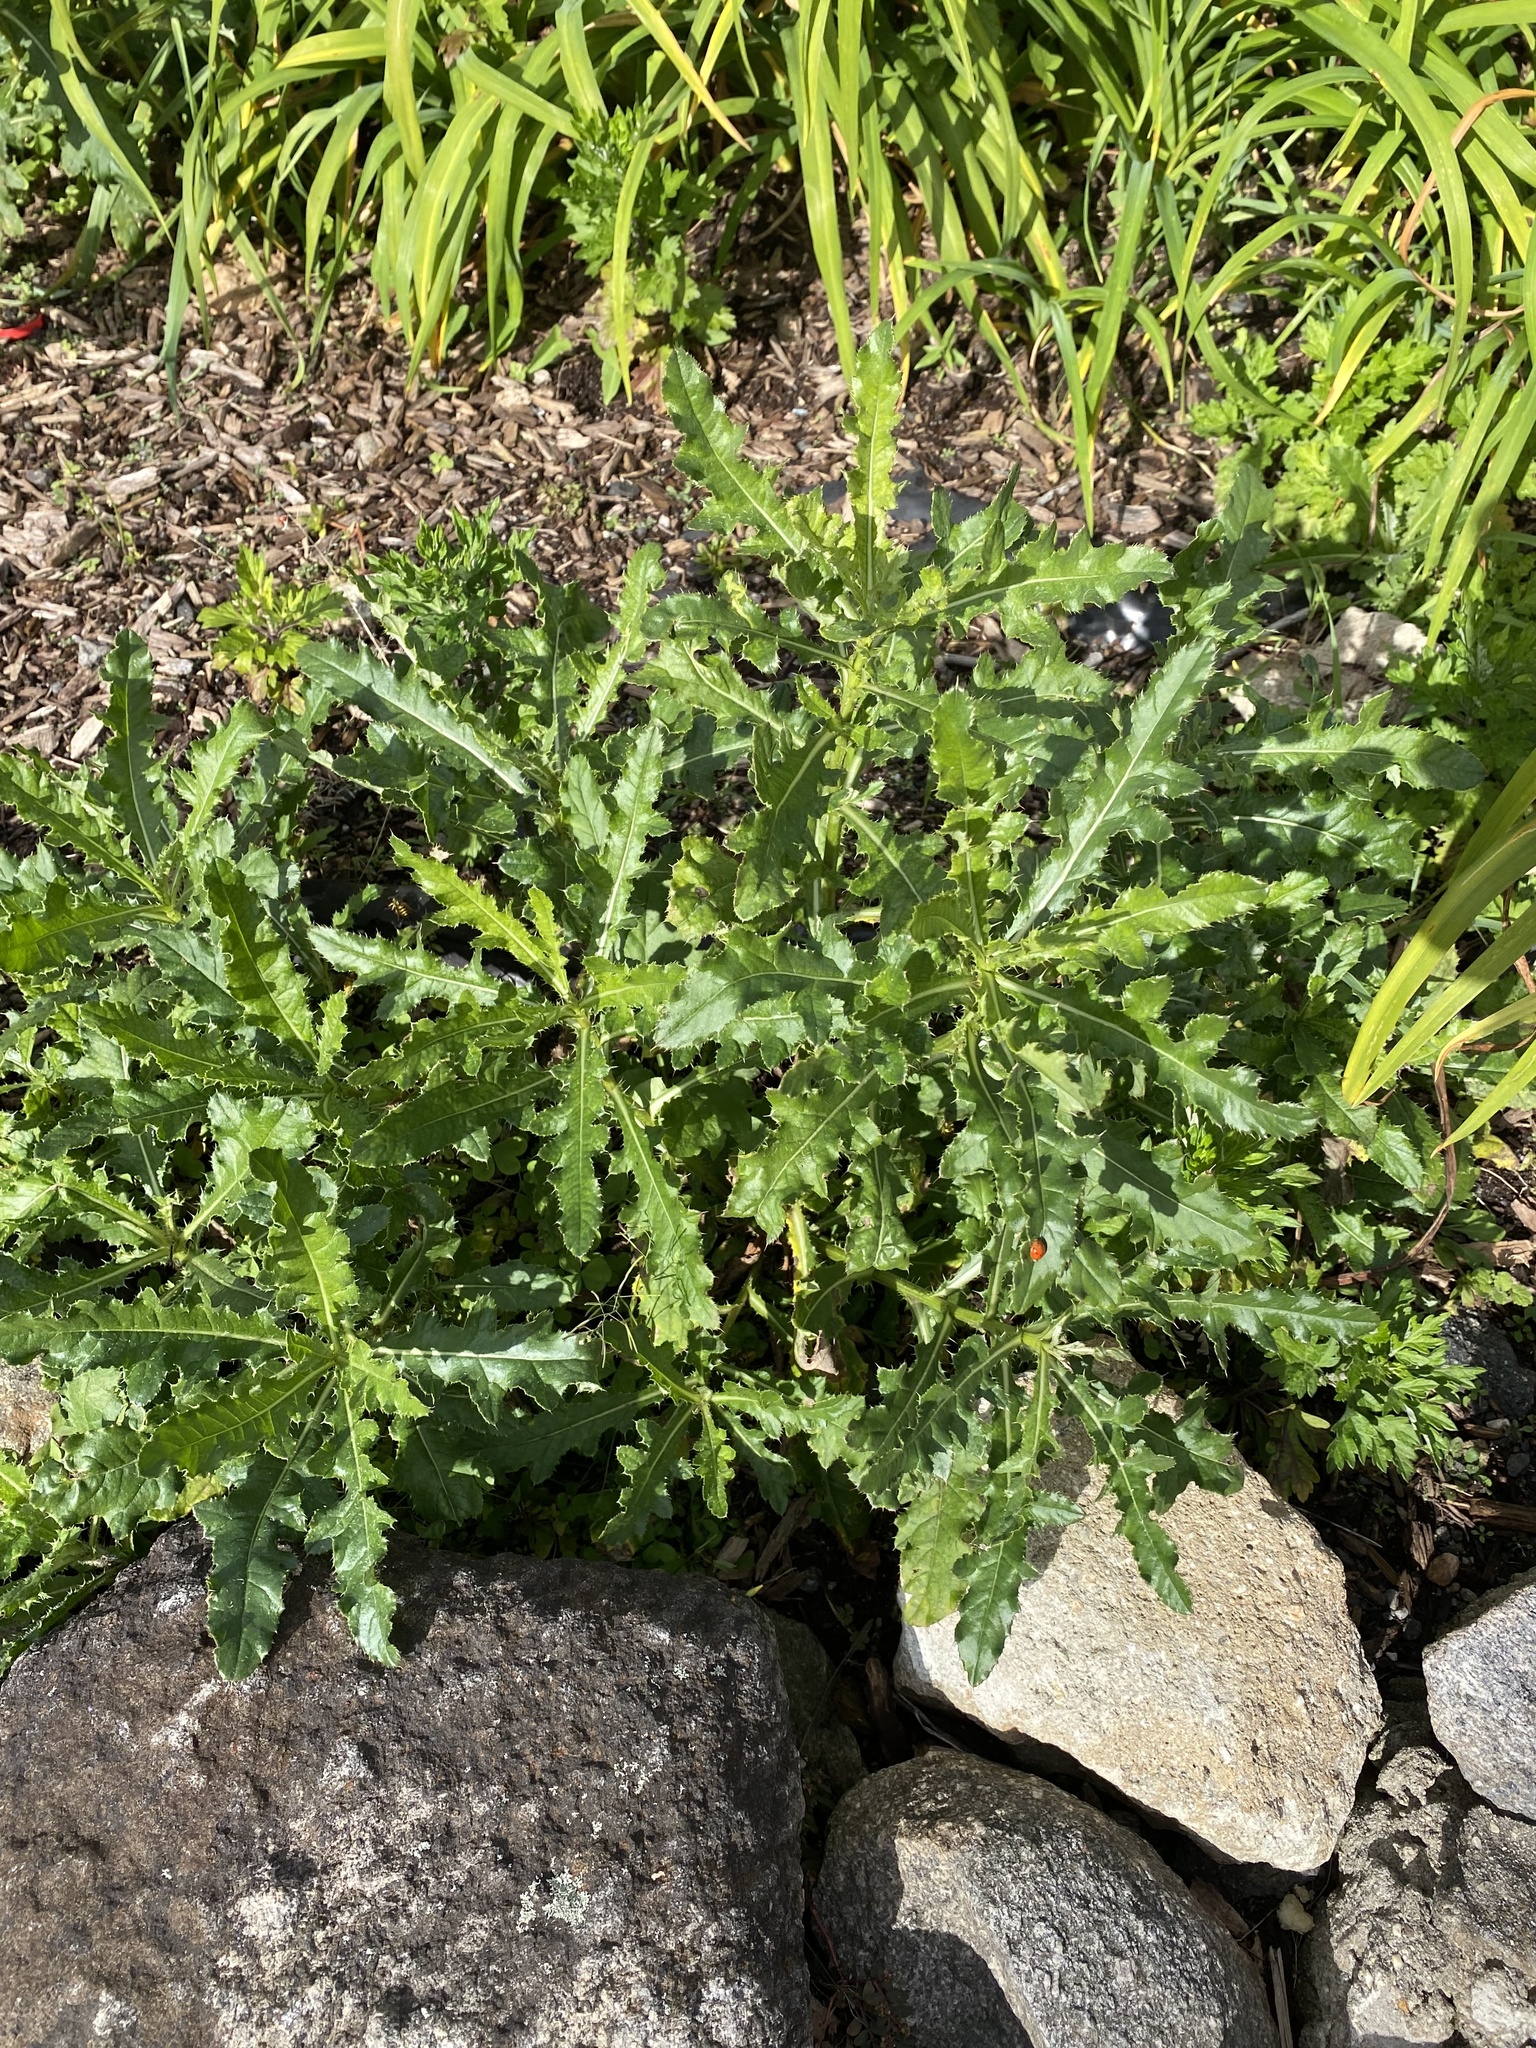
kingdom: Plantae
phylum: Tracheophyta
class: Magnoliopsida
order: Asterales
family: Asteraceae
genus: Cirsium
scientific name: Cirsium arvense
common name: Creeping thistle
